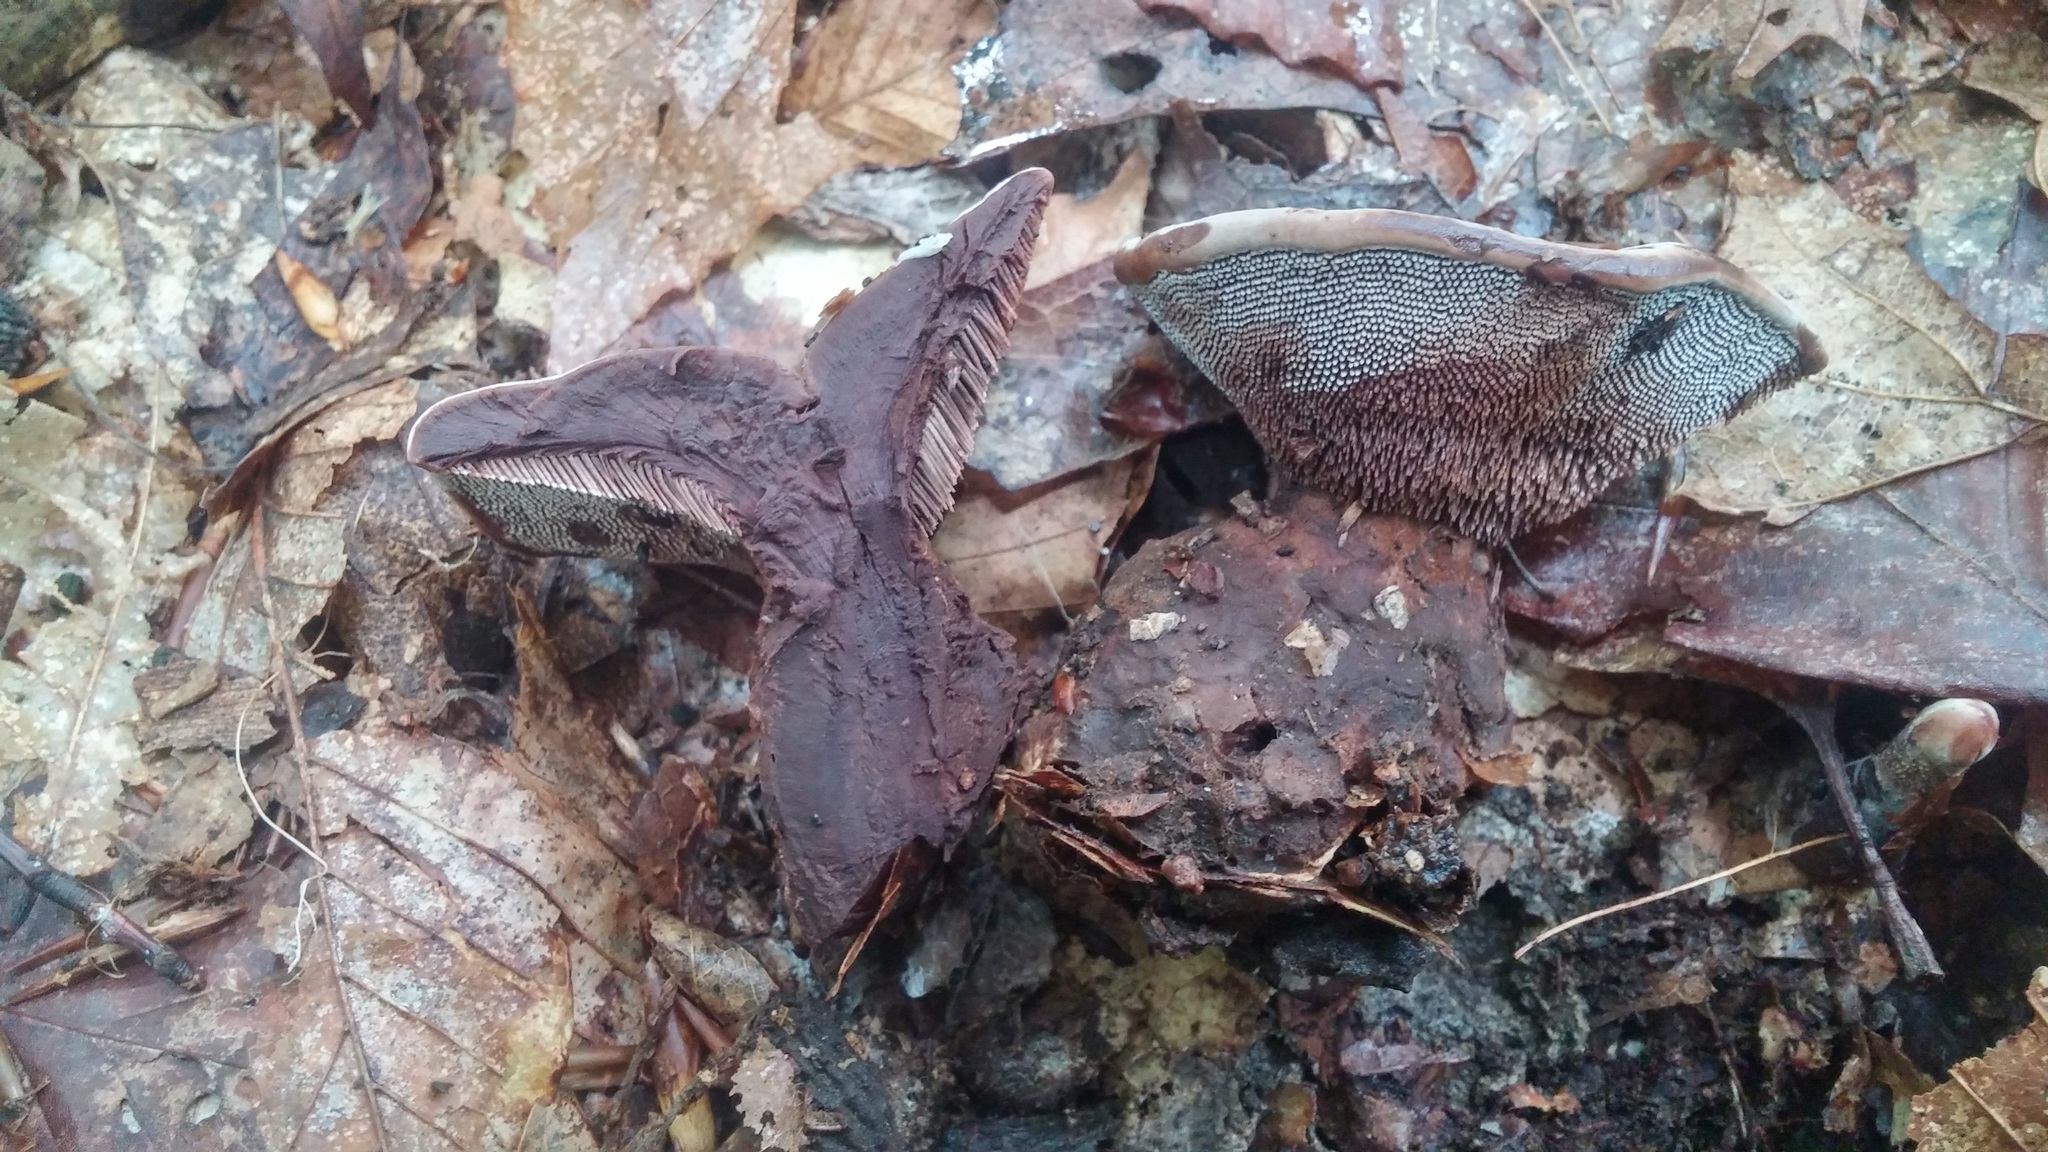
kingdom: Fungi
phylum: Basidiomycota
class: Agaricomycetes
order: Thelephorales
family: Bankeraceae
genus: Hydnellum
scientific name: Hydnellum spongiosipes
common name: Velvet tooth
